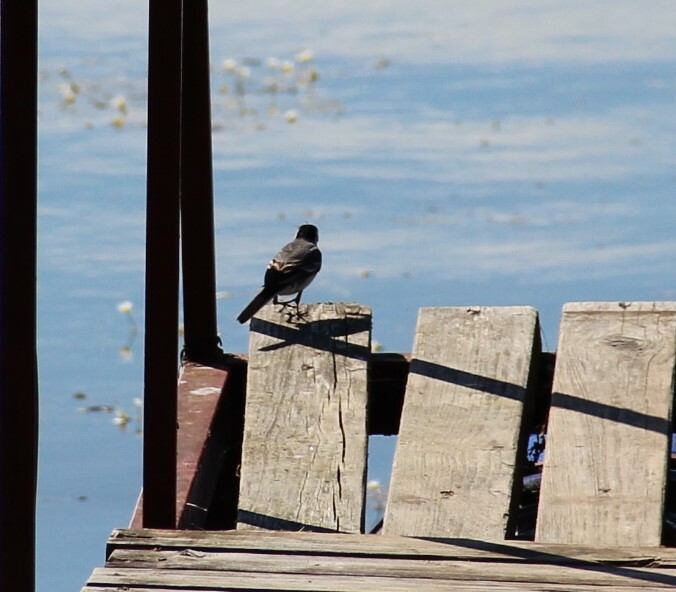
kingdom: Animalia
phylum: Chordata
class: Aves
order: Passeriformes
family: Motacillidae
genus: Motacilla
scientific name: Motacilla alba
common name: White wagtail
